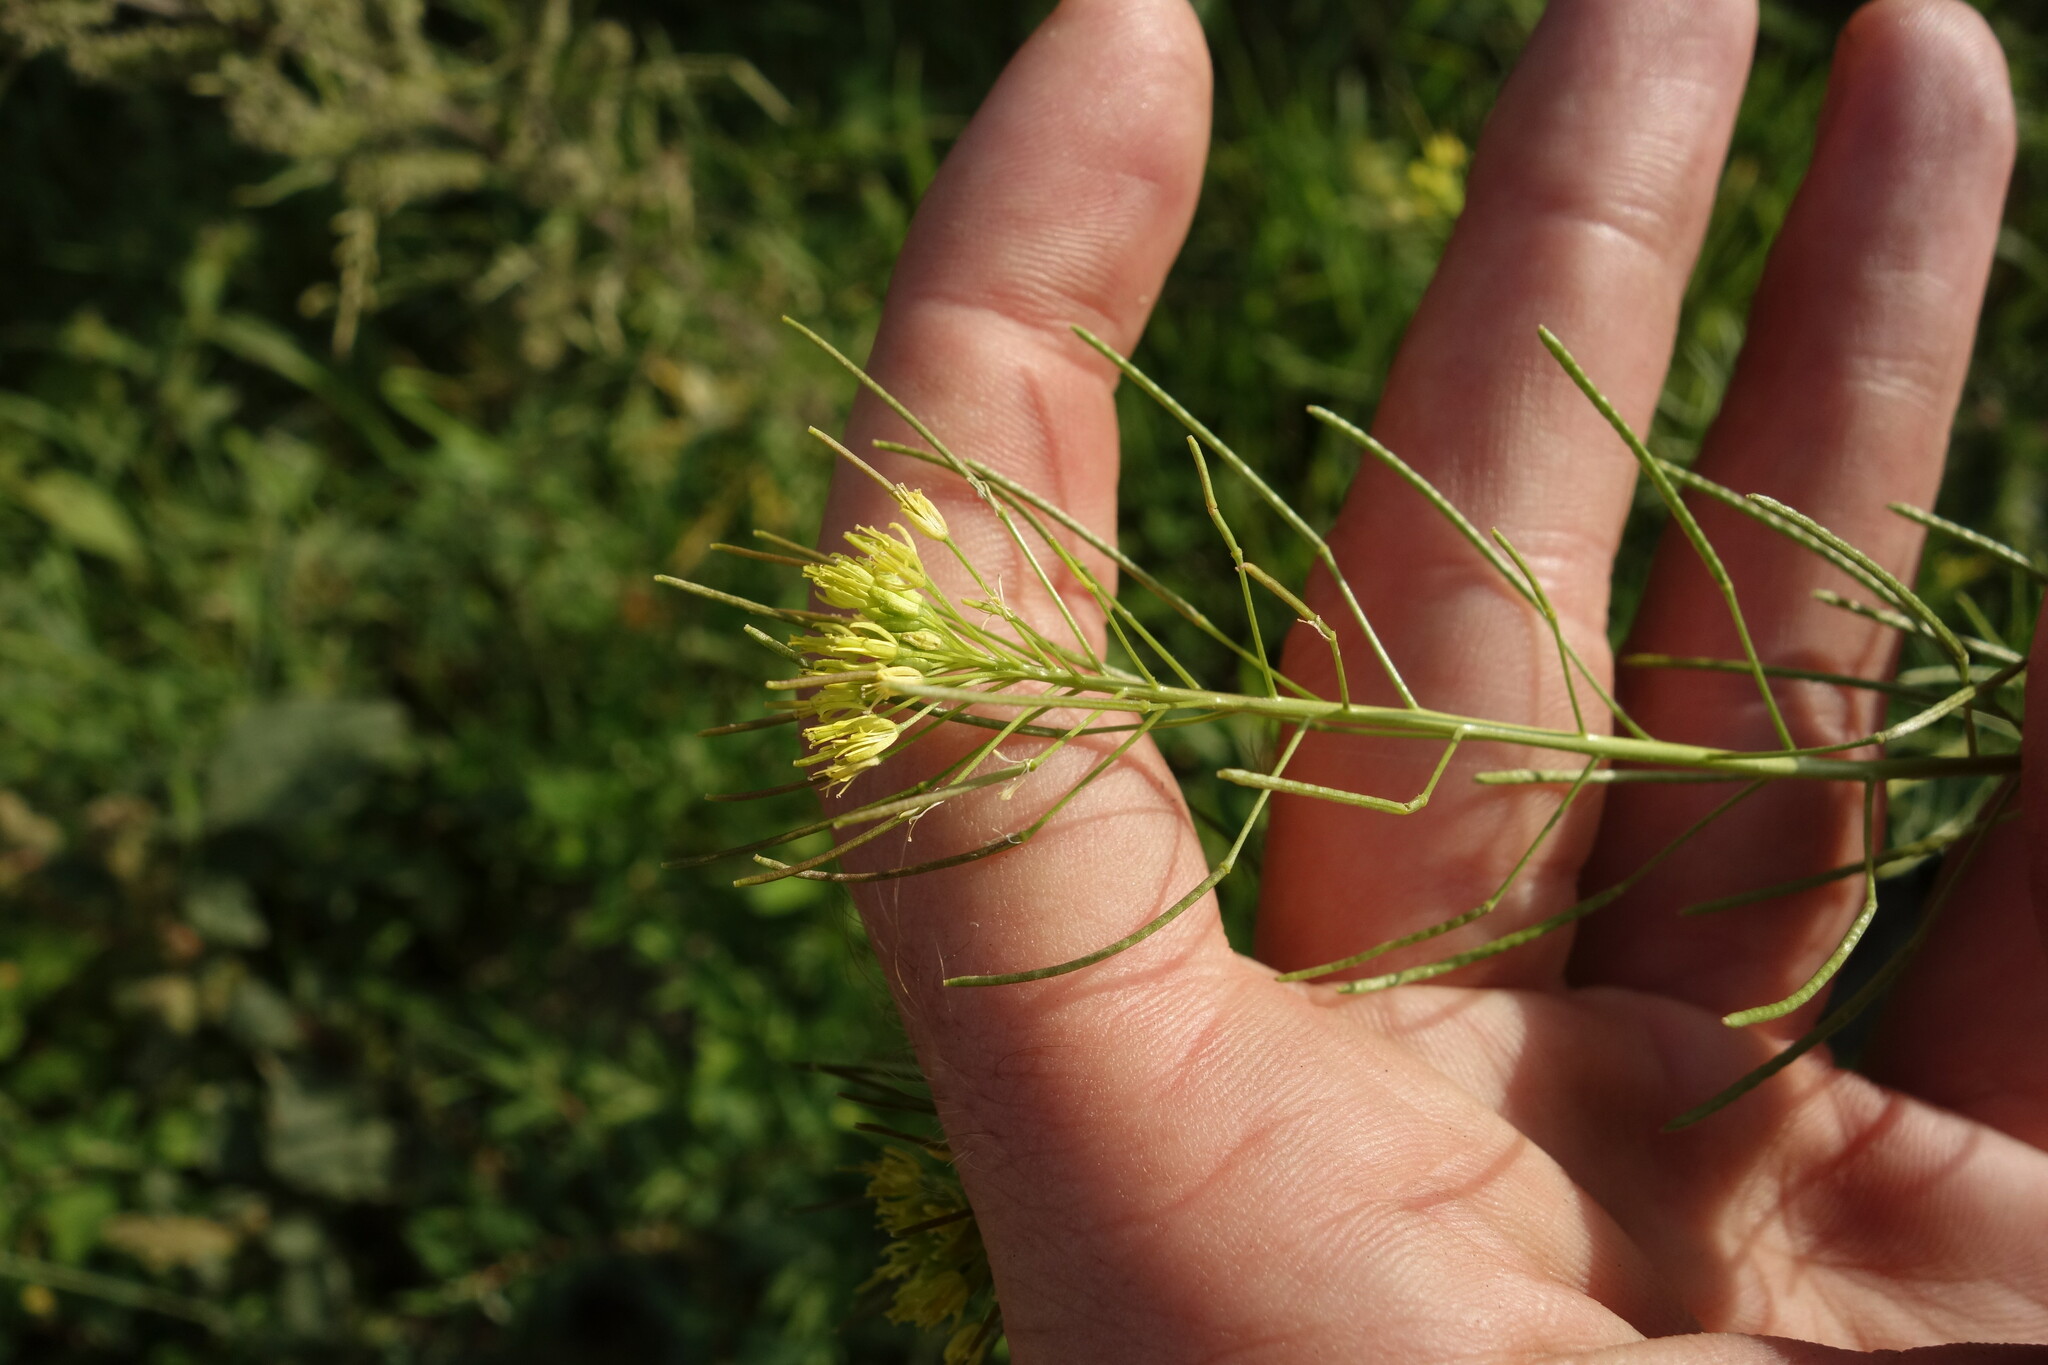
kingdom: Plantae
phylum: Tracheophyta
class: Magnoliopsida
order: Brassicales
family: Brassicaceae
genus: Descurainia
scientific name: Descurainia sophia
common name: Flixweed
